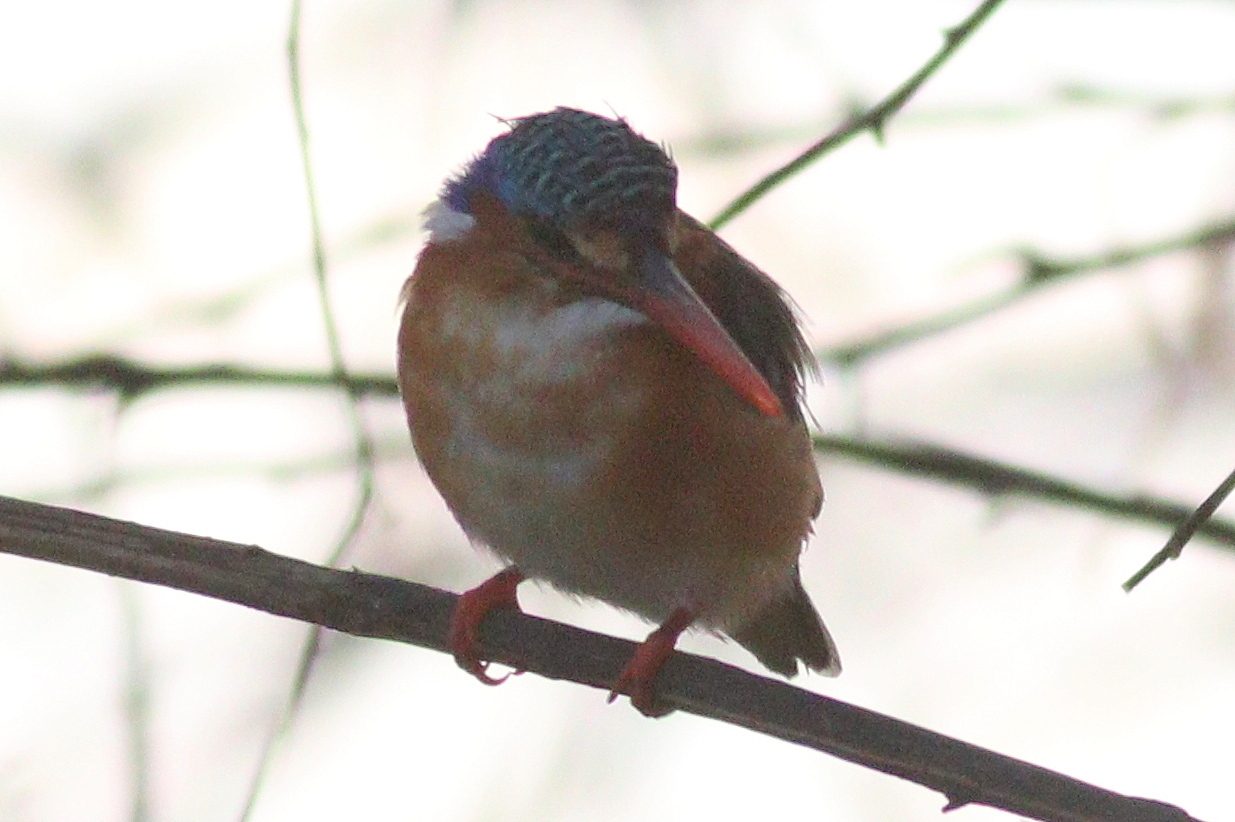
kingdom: Animalia
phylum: Chordata
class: Aves
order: Coraciiformes
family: Alcedinidae
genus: Corythornis
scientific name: Corythornis cristatus
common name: Malachite kingfisher
